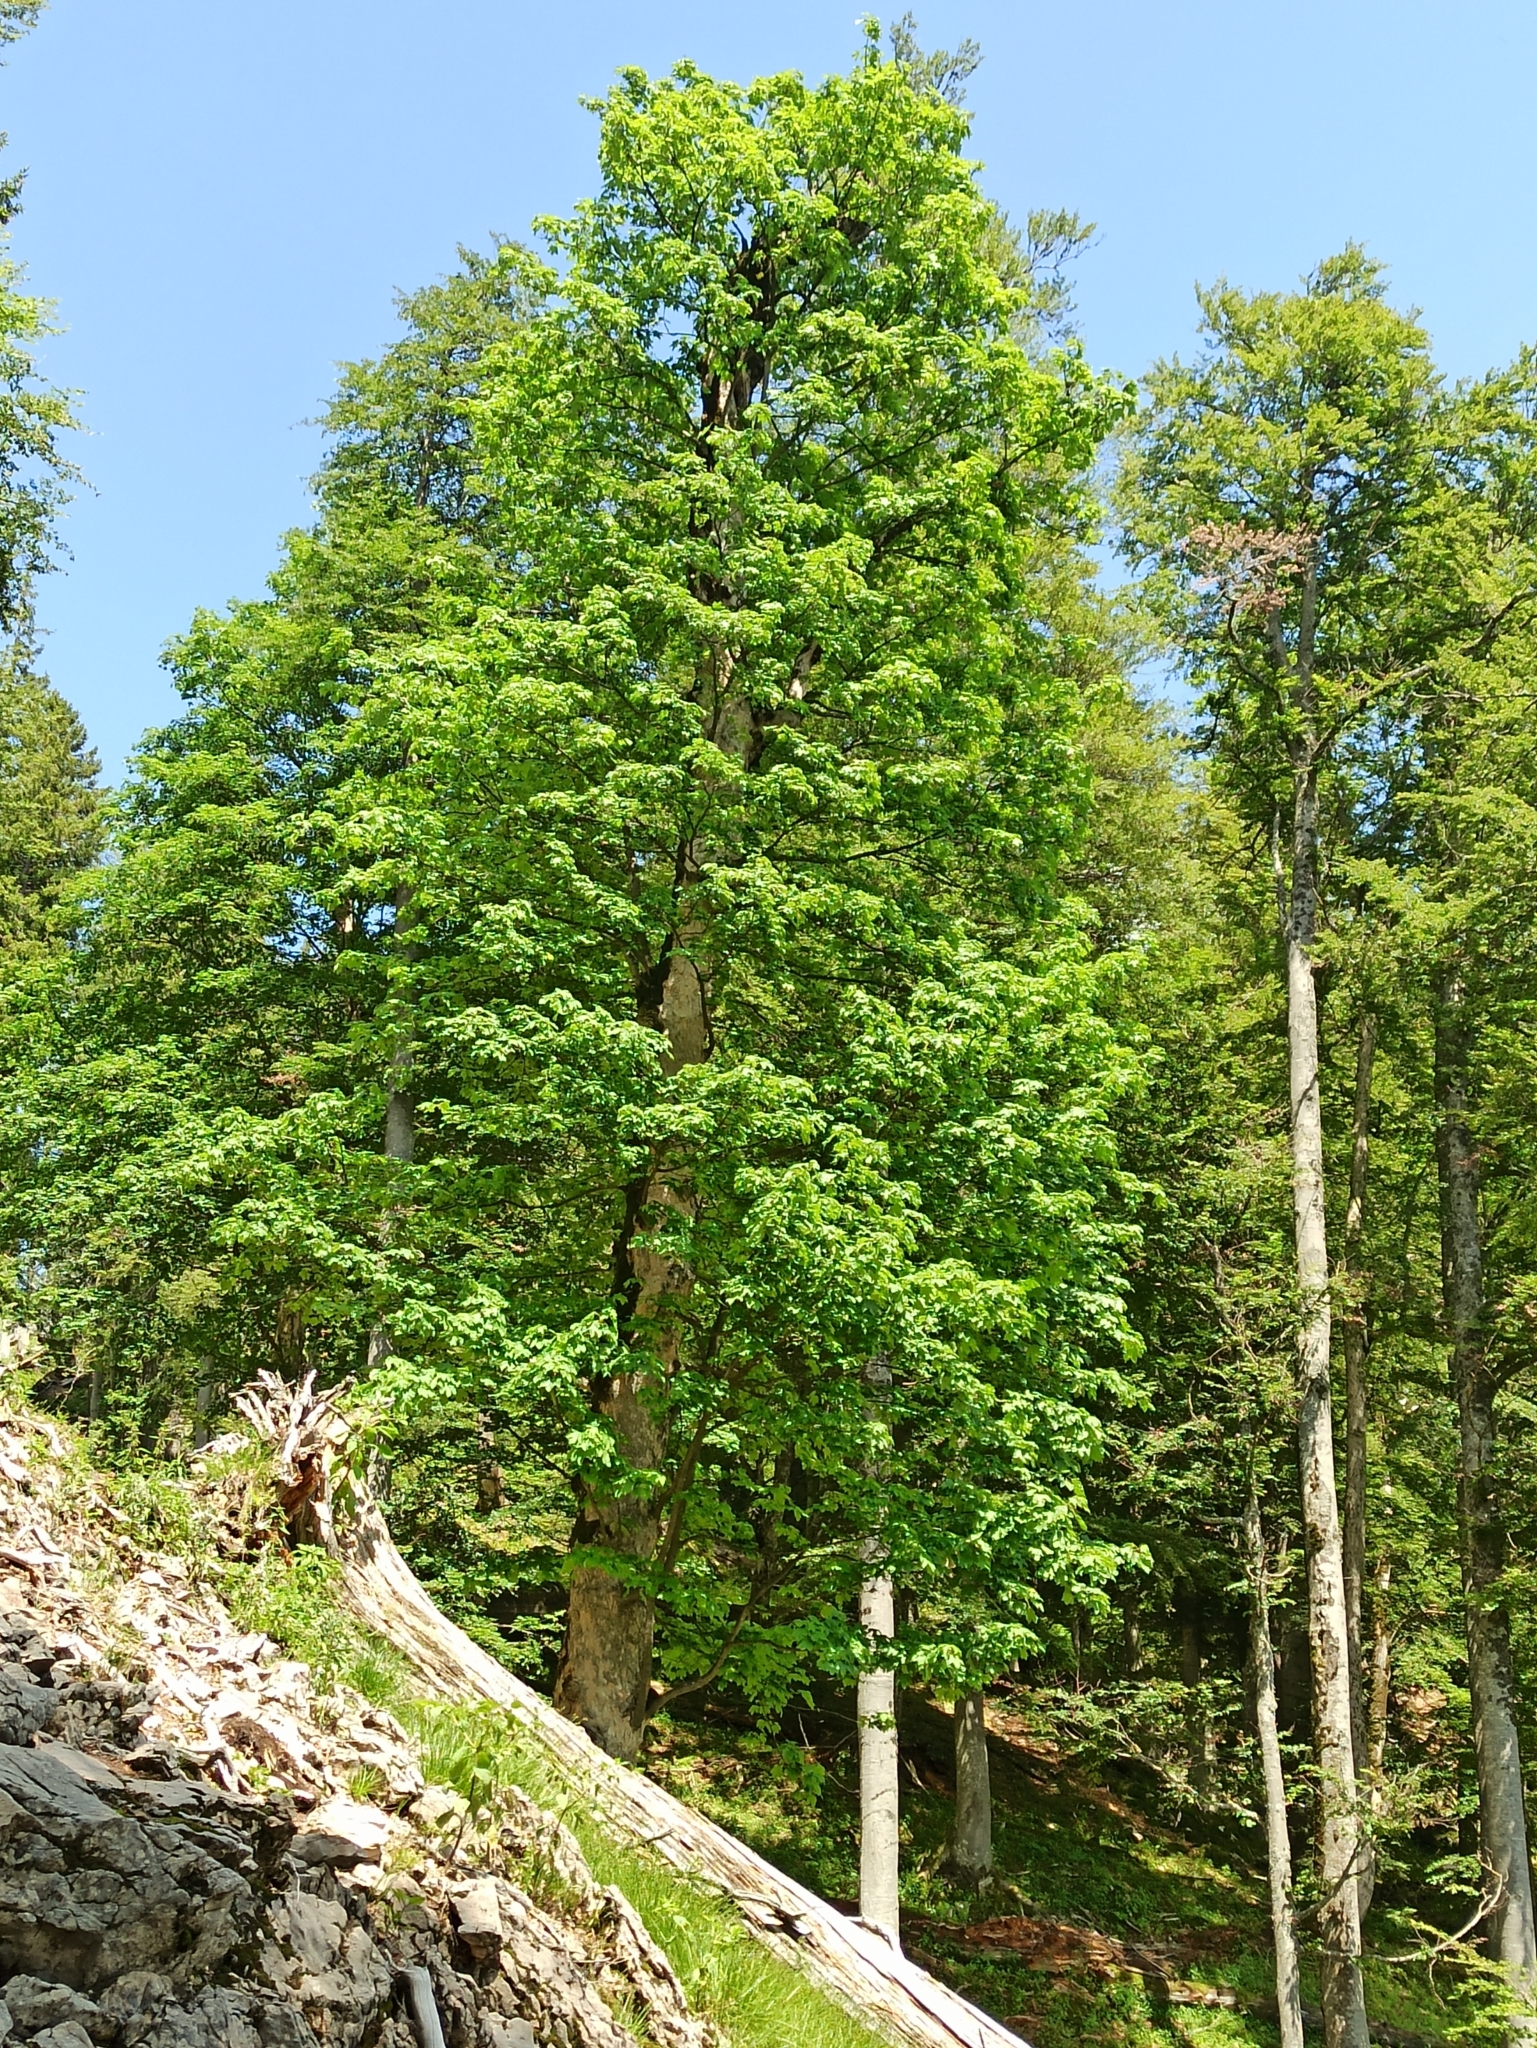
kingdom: Plantae
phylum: Tracheophyta
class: Magnoliopsida
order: Sapindales
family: Sapindaceae
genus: Acer
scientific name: Acer pseudoplatanus
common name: Sycamore
